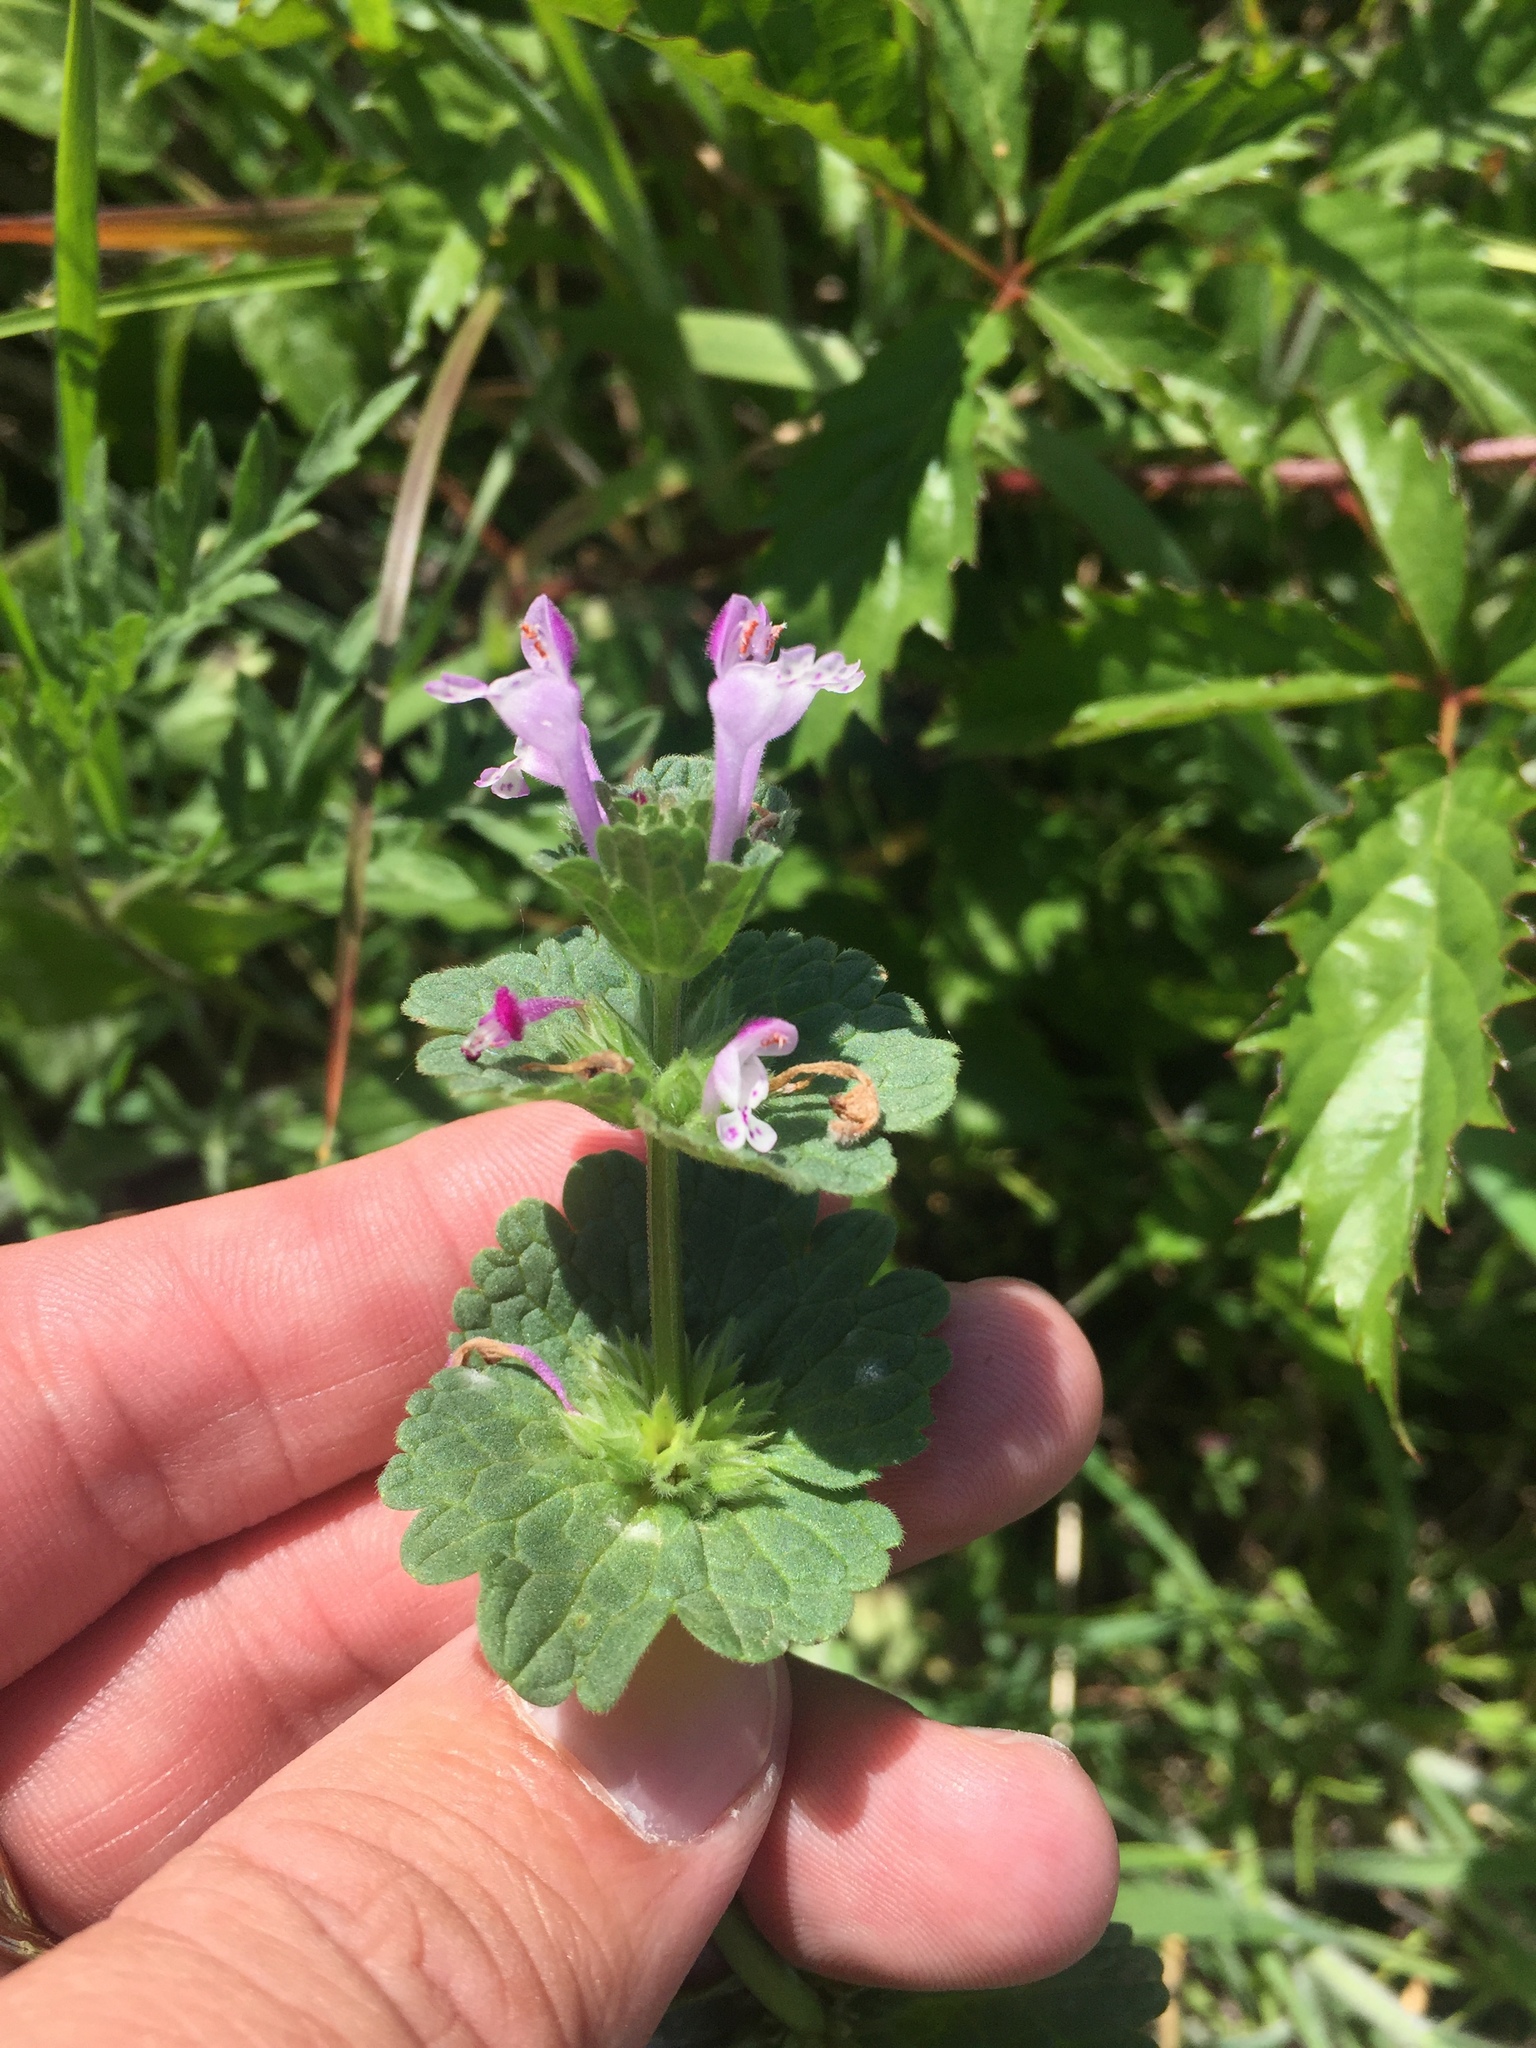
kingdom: Plantae
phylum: Tracheophyta
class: Magnoliopsida
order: Lamiales
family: Lamiaceae
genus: Lamium
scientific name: Lamium amplexicaule
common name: Henbit dead-nettle
